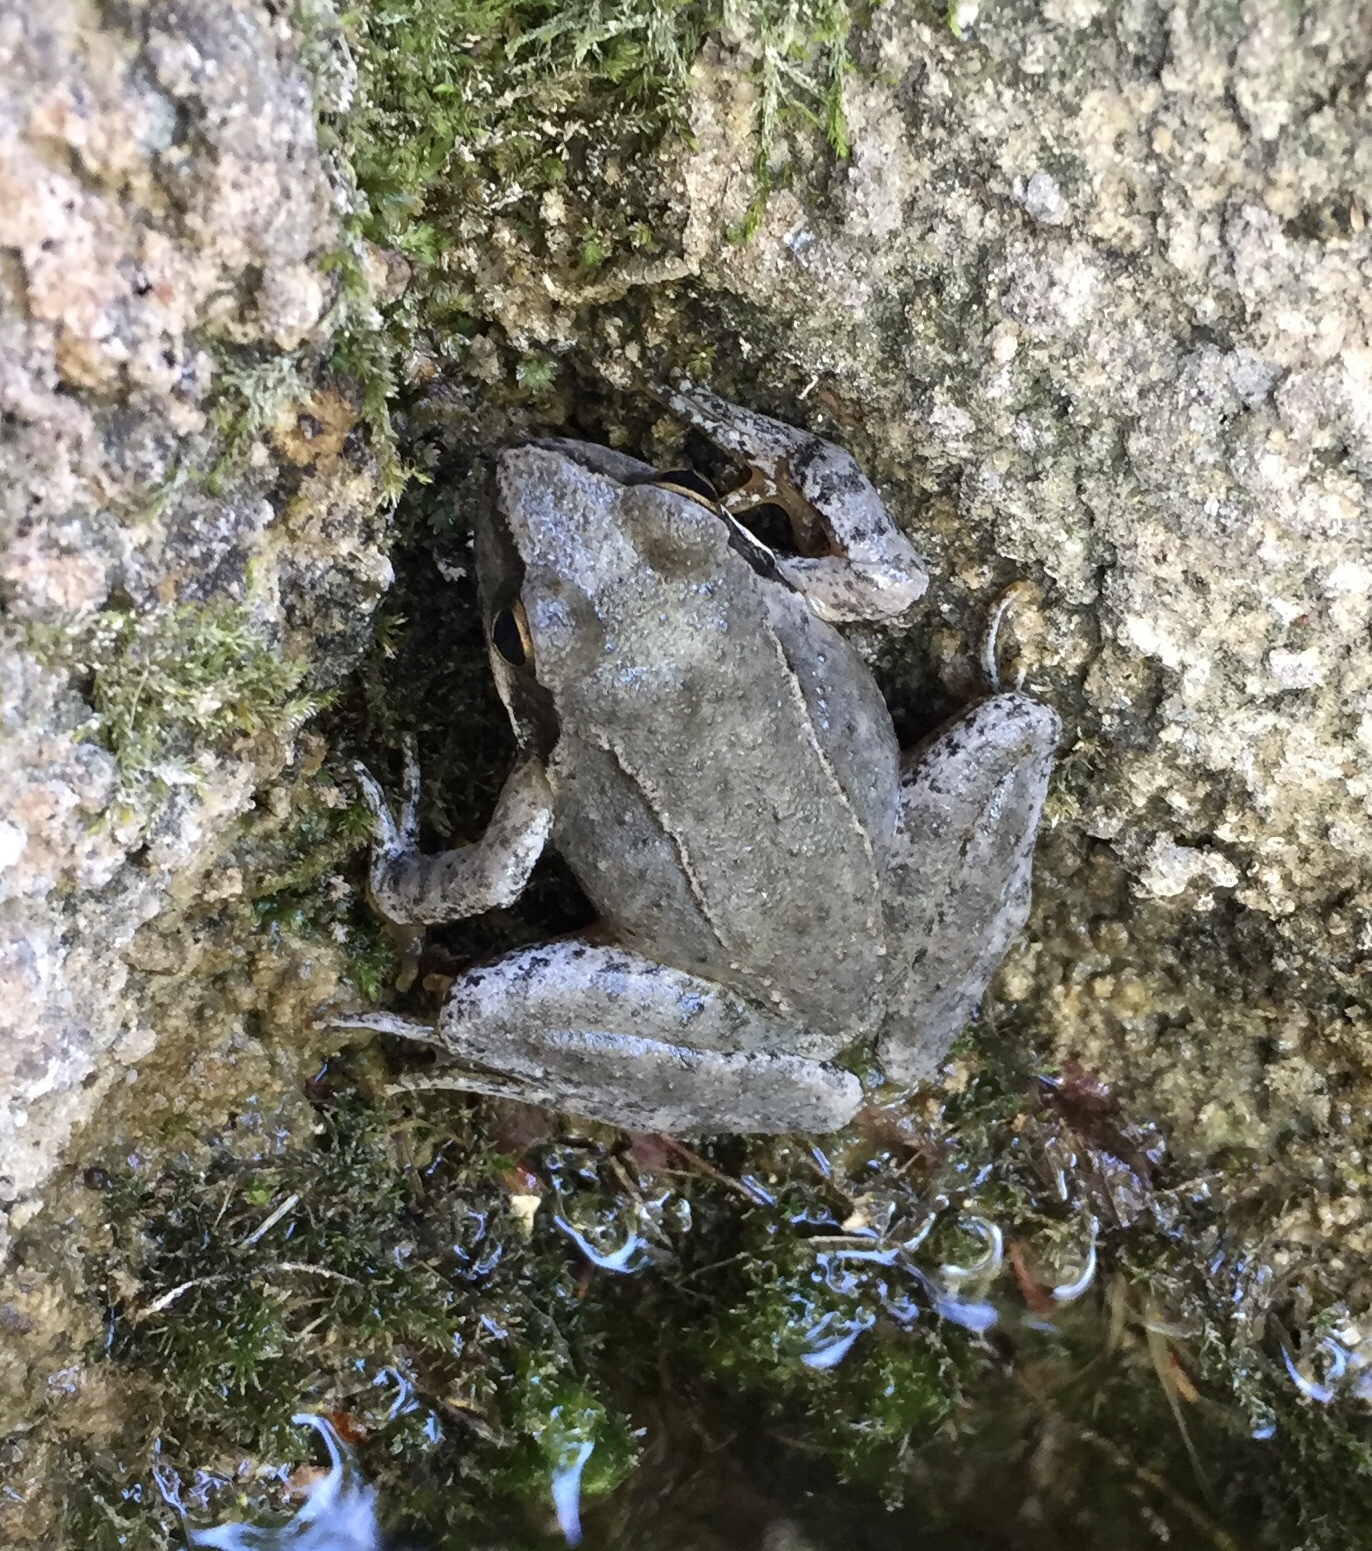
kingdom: Animalia
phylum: Chordata
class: Amphibia
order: Anura
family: Ranidae
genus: Rana
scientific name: Rana graeca
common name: Greek stream frog
